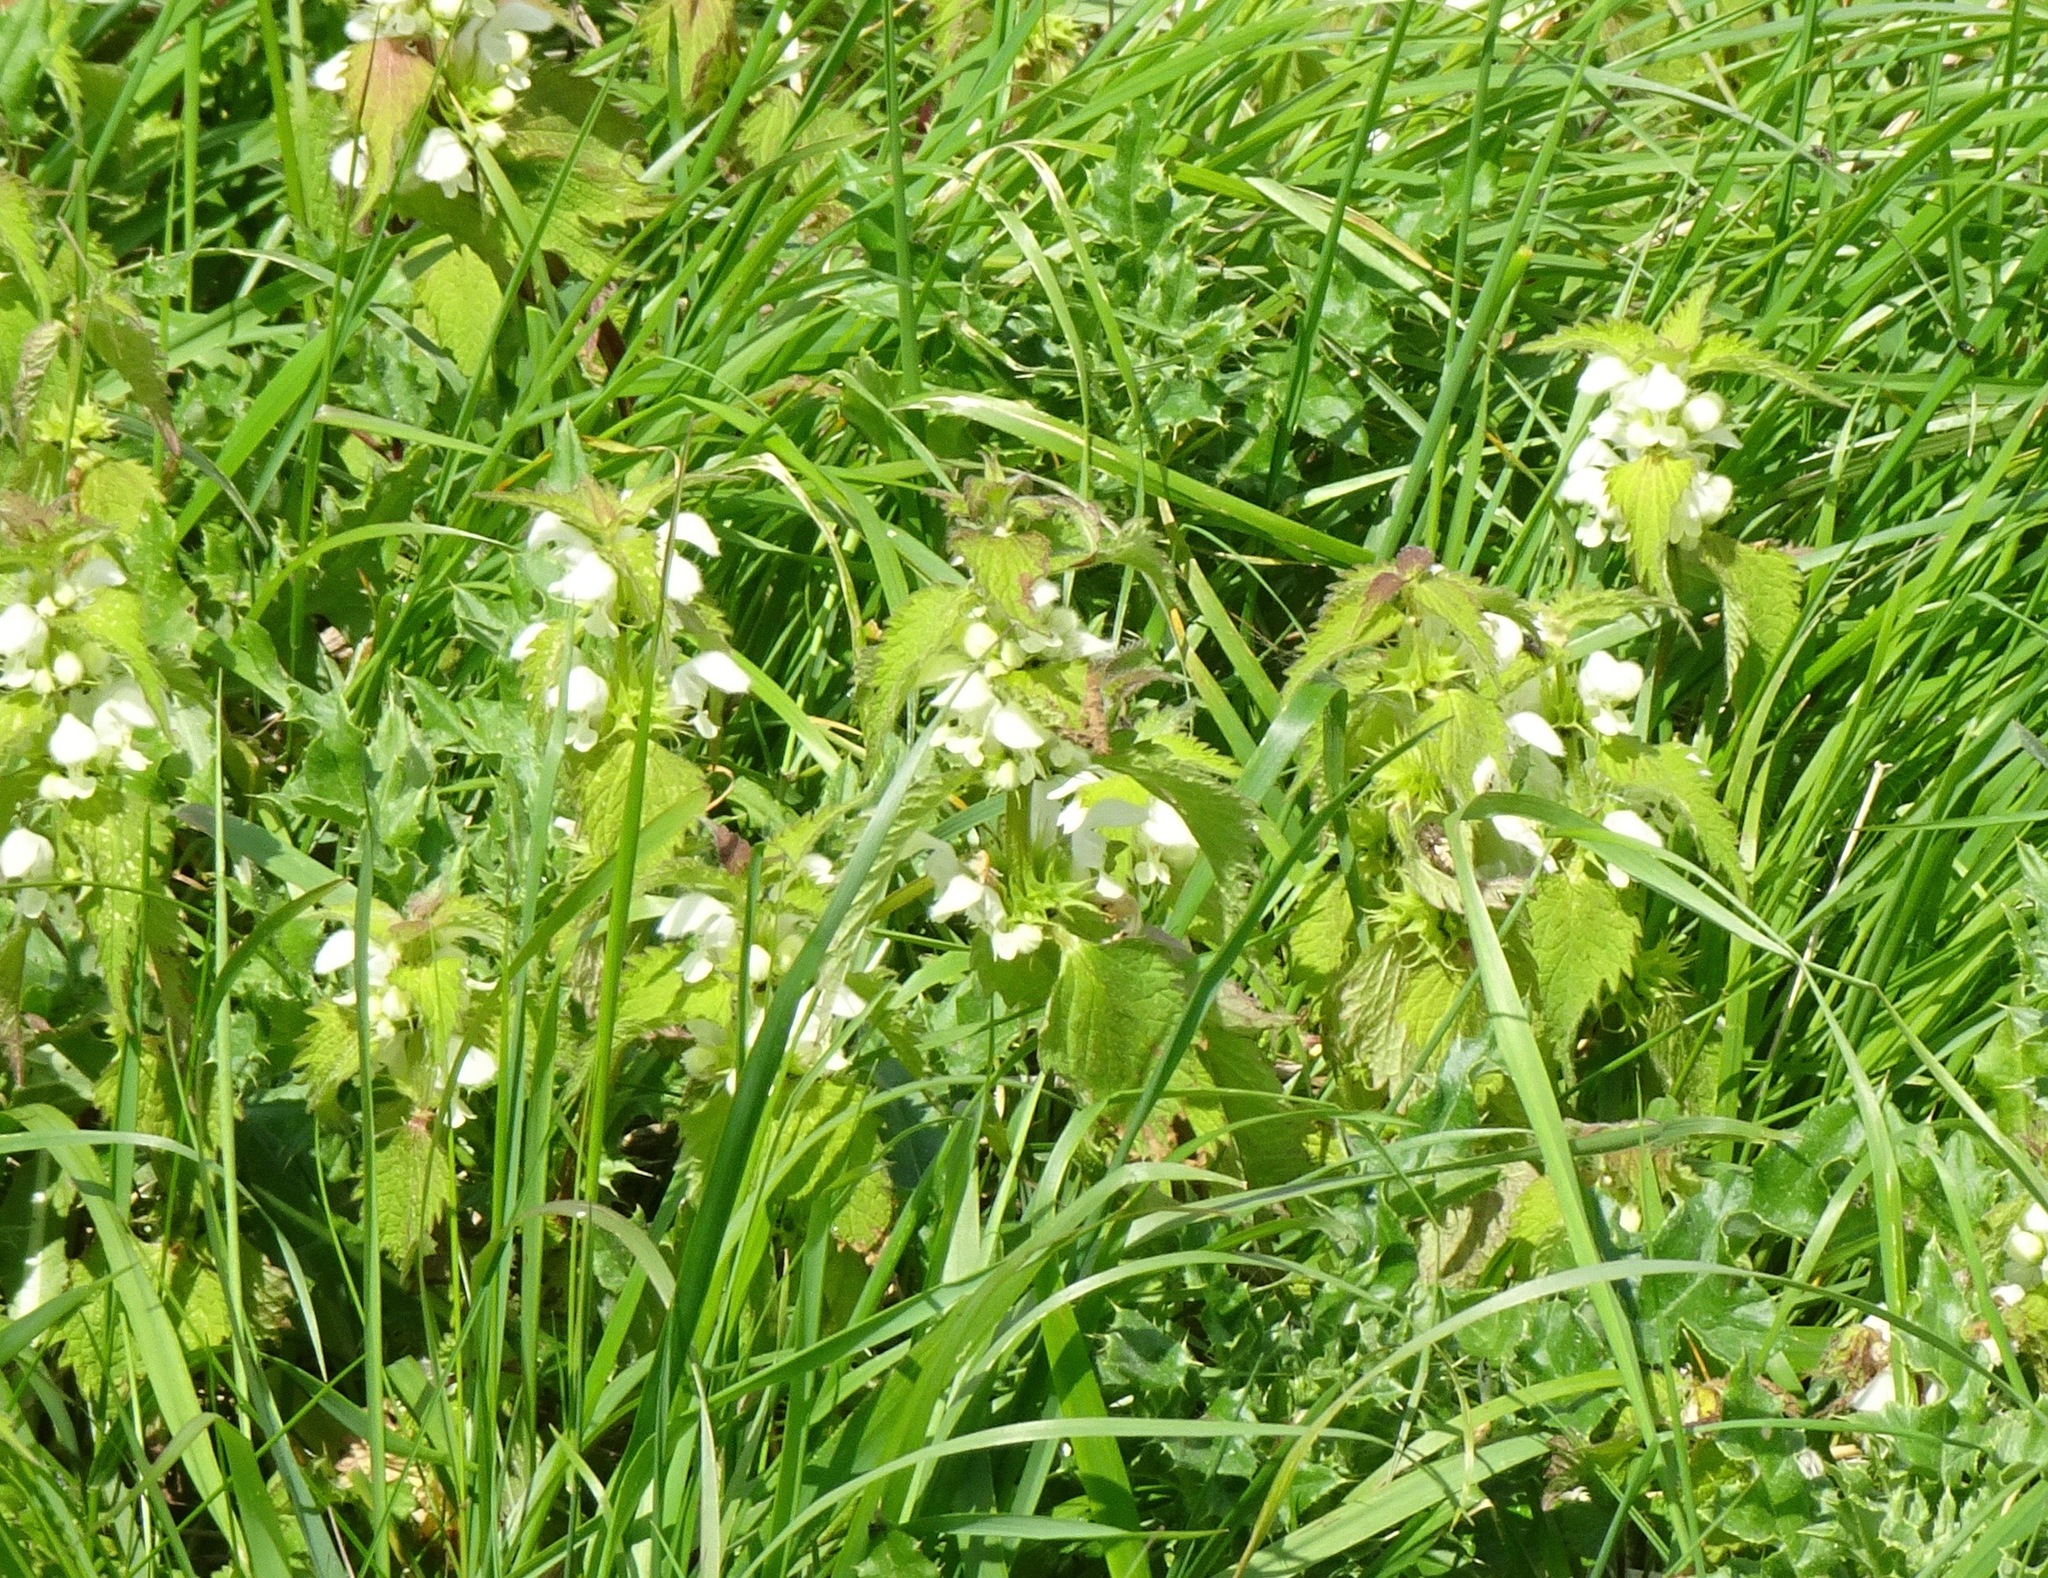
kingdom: Plantae
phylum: Tracheophyta
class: Magnoliopsida
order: Lamiales
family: Lamiaceae
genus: Lamium
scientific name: Lamium album
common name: White dead-nettle
